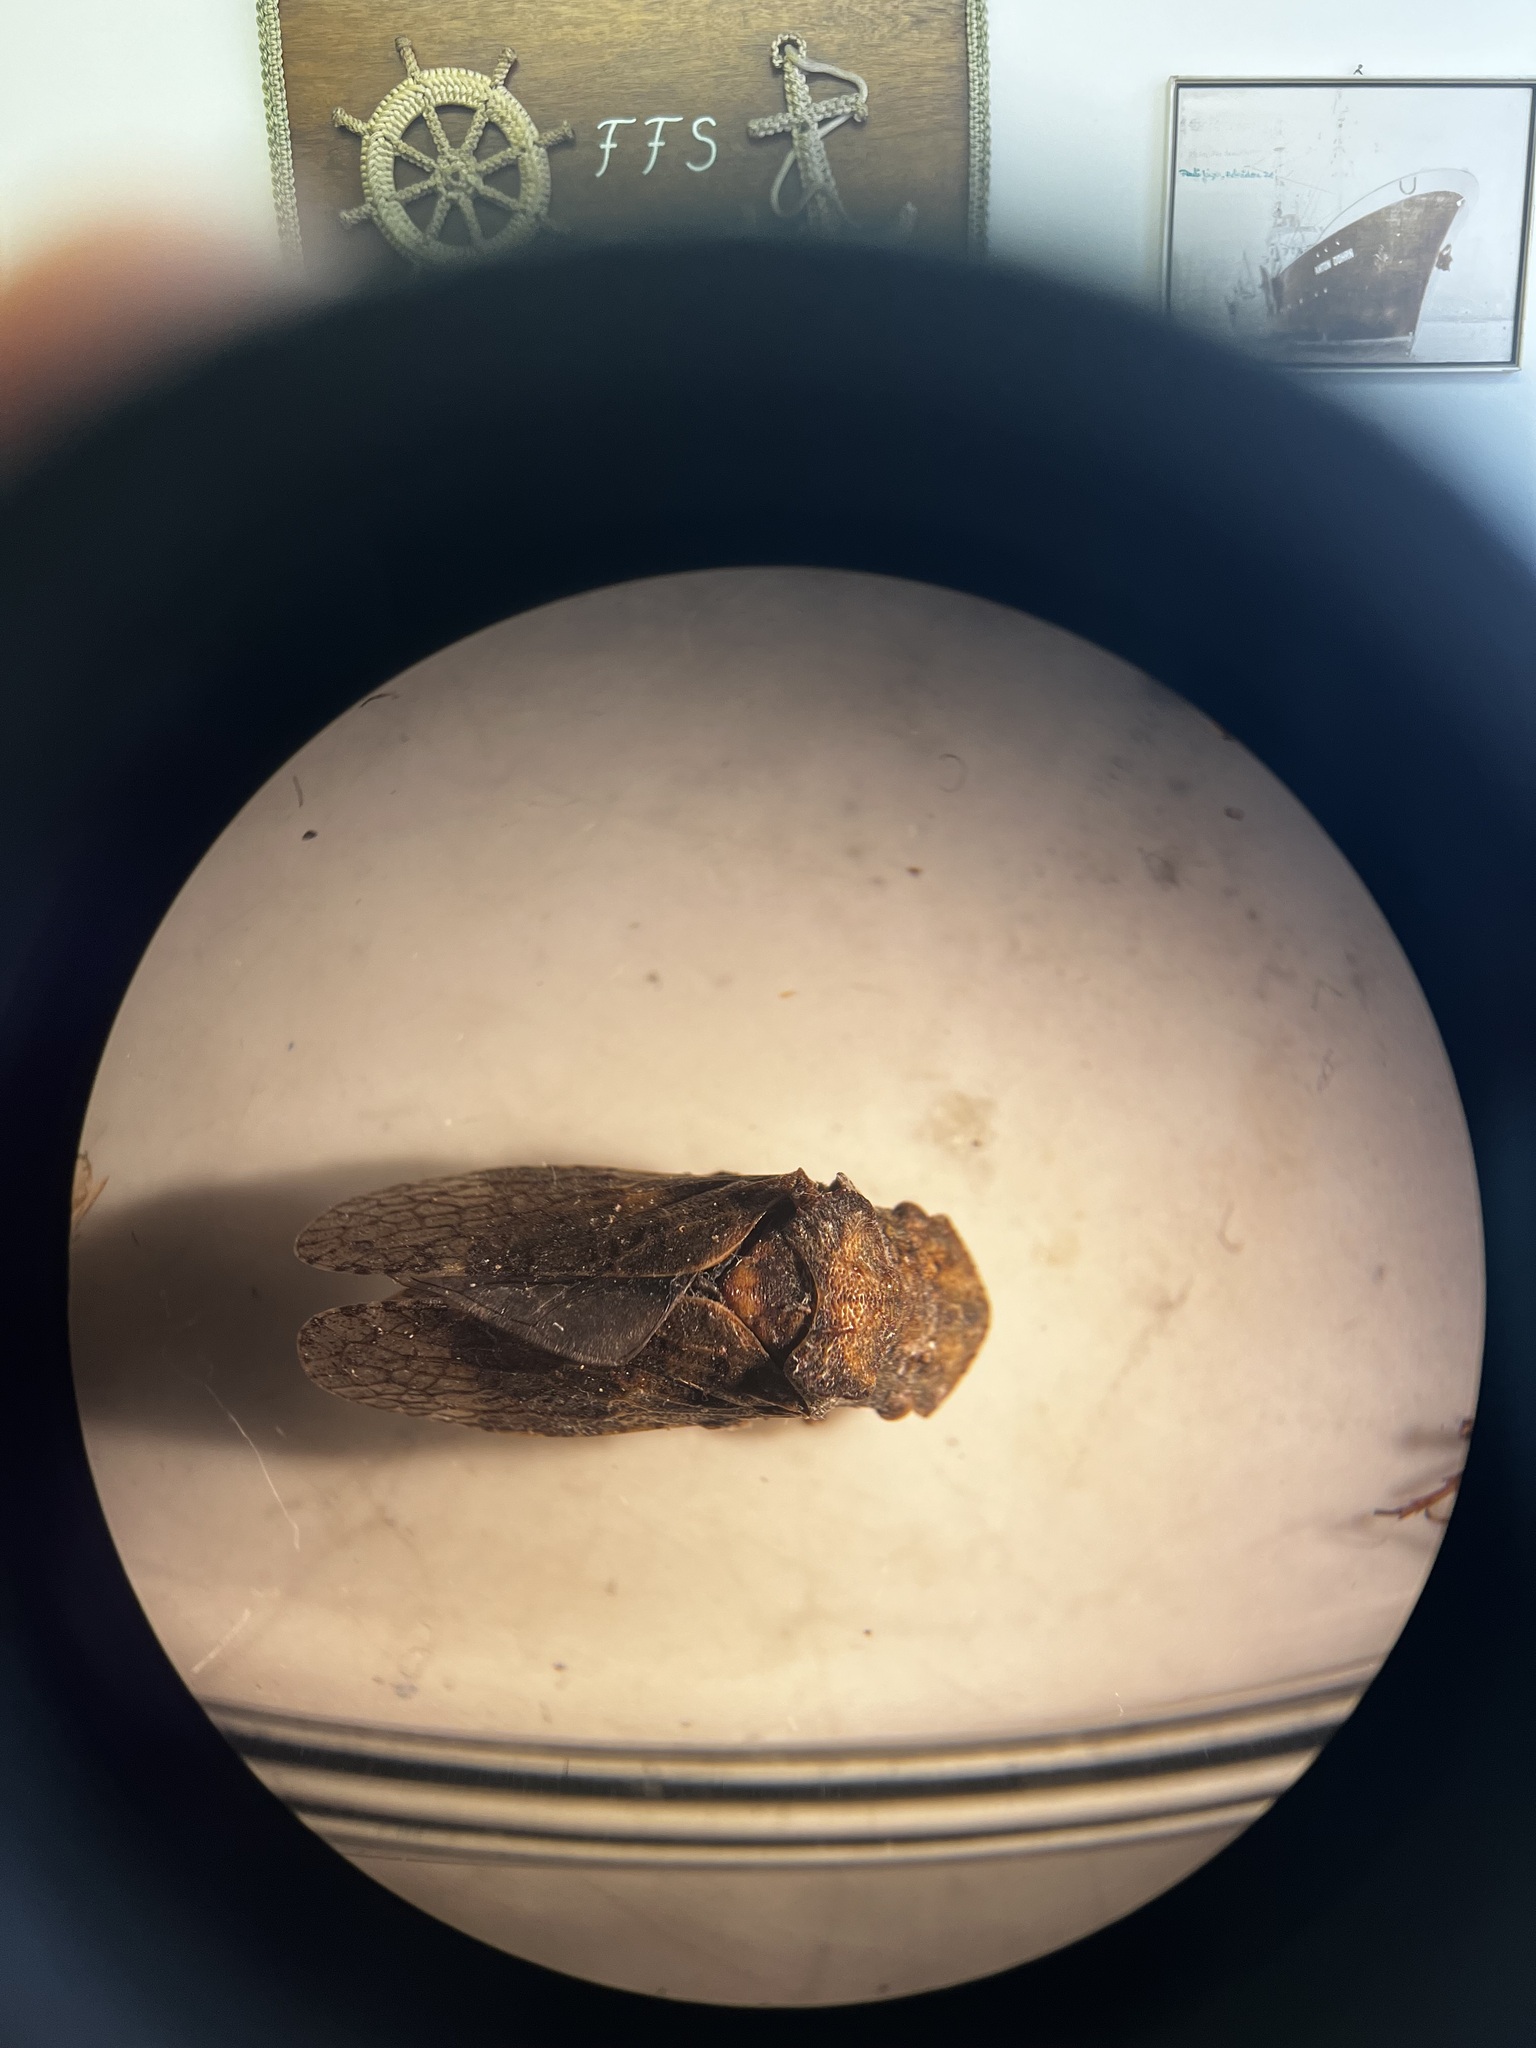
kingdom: Animalia
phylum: Arthropoda
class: Insecta
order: Hemiptera
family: Cicadellidae
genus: Ledra
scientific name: Ledra aurita
